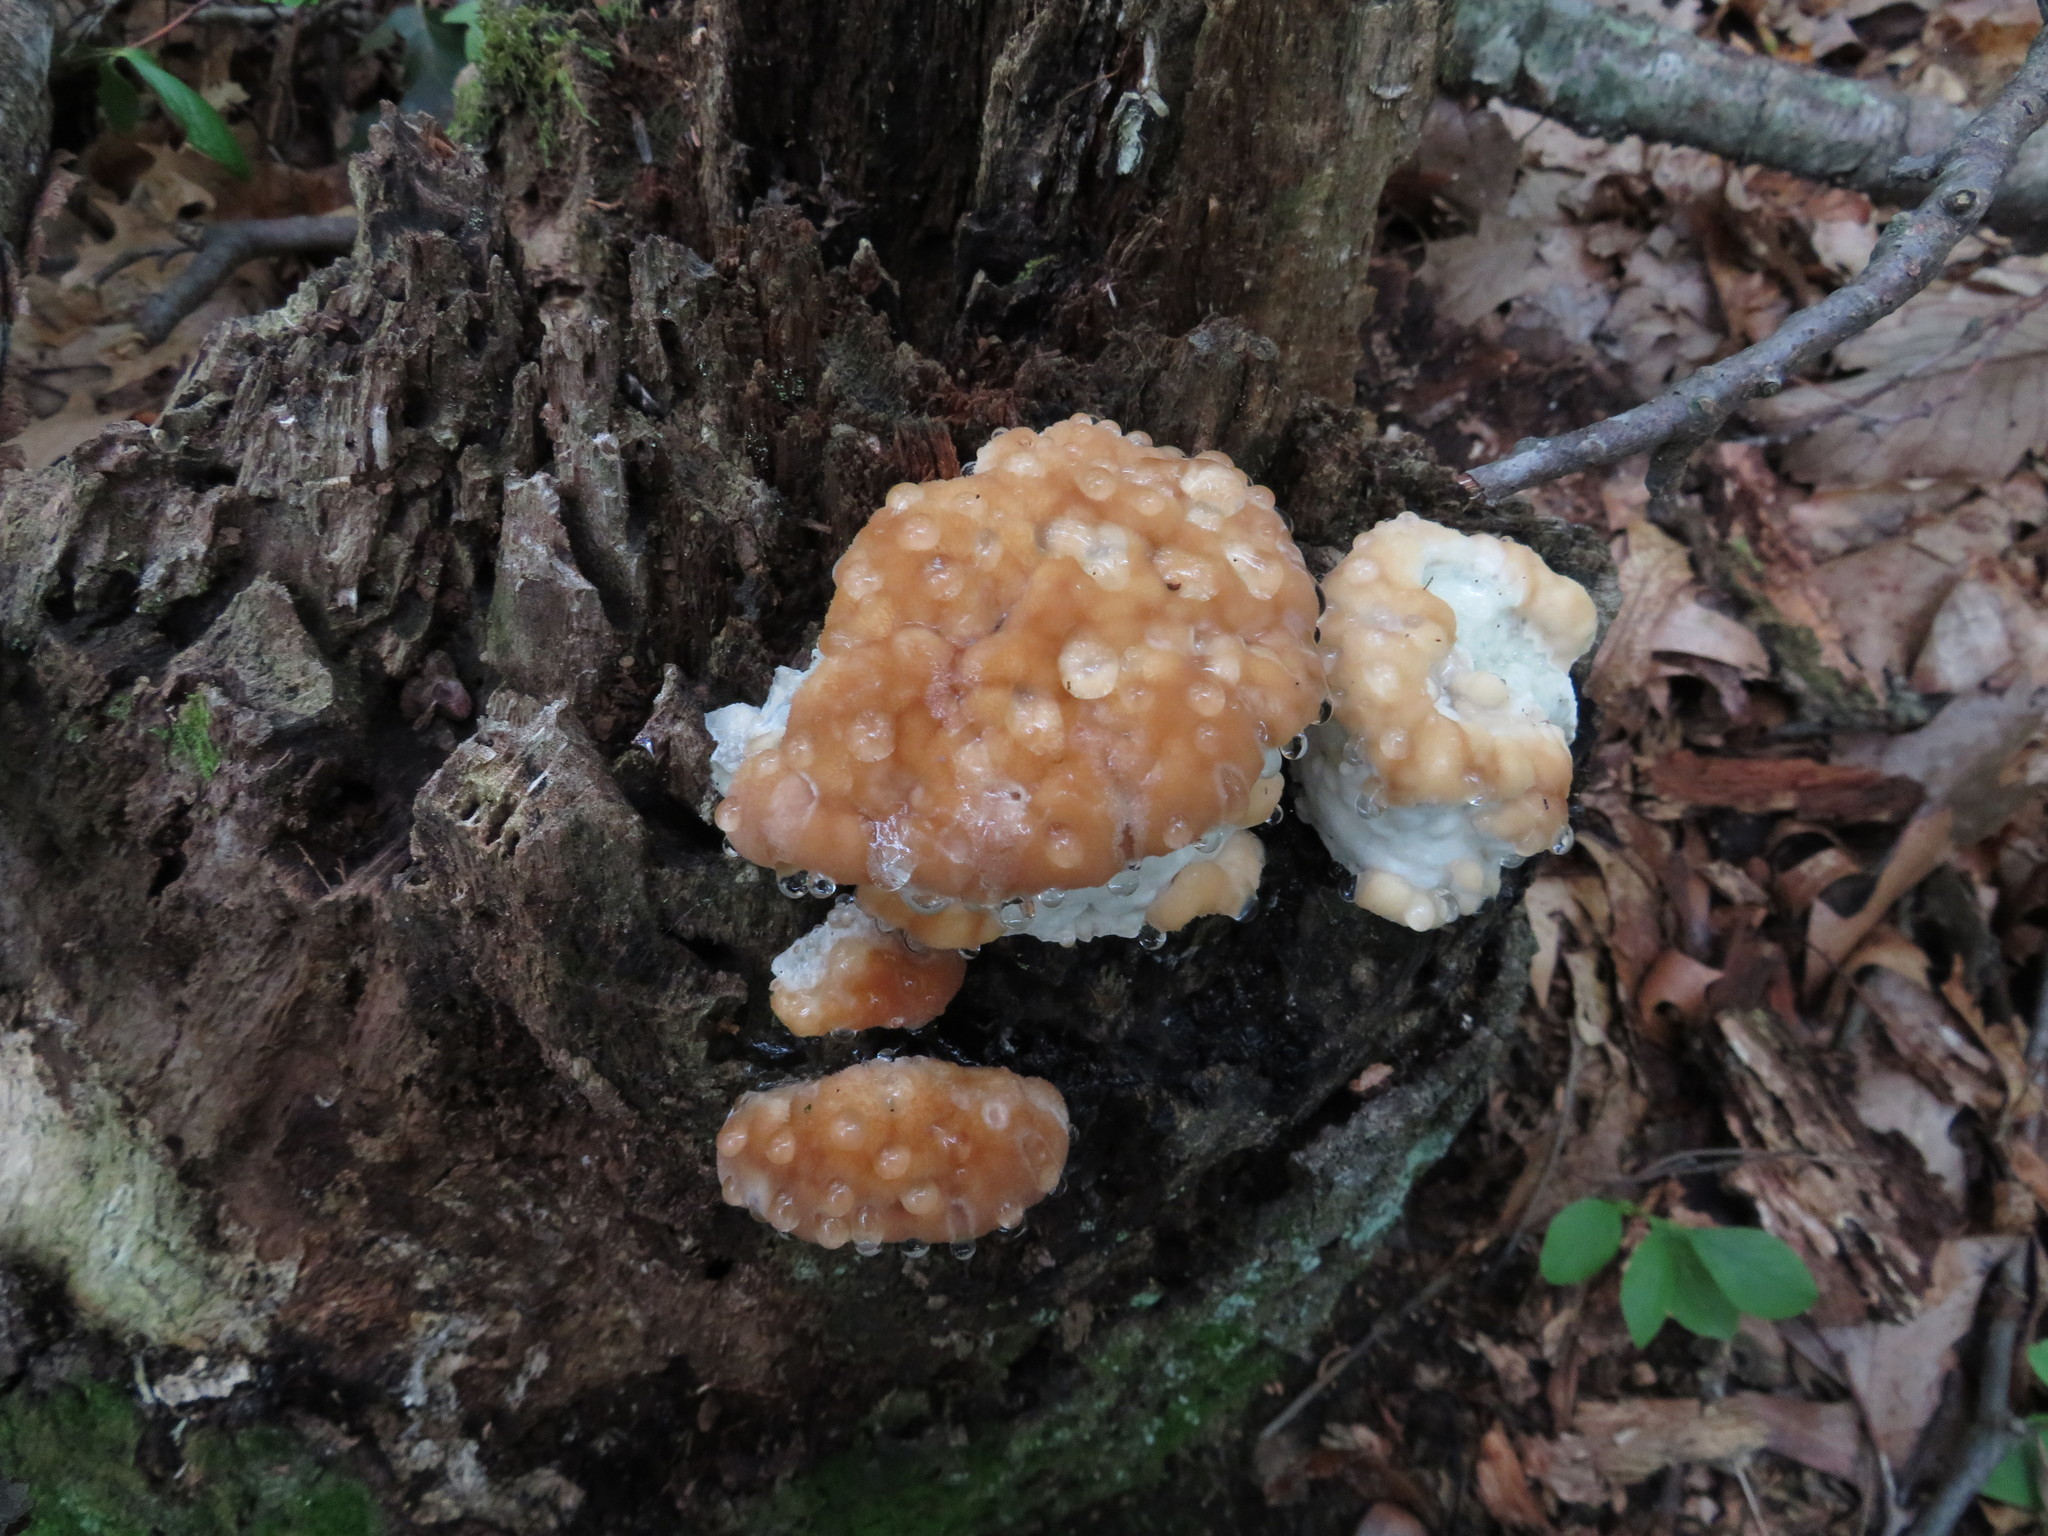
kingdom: Fungi
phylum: Basidiomycota
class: Agaricomycetes
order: Polyporales
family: Fomitopsidaceae
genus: Niveoporofomes
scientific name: Niveoporofomes spraguei
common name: Green cheese polypore
